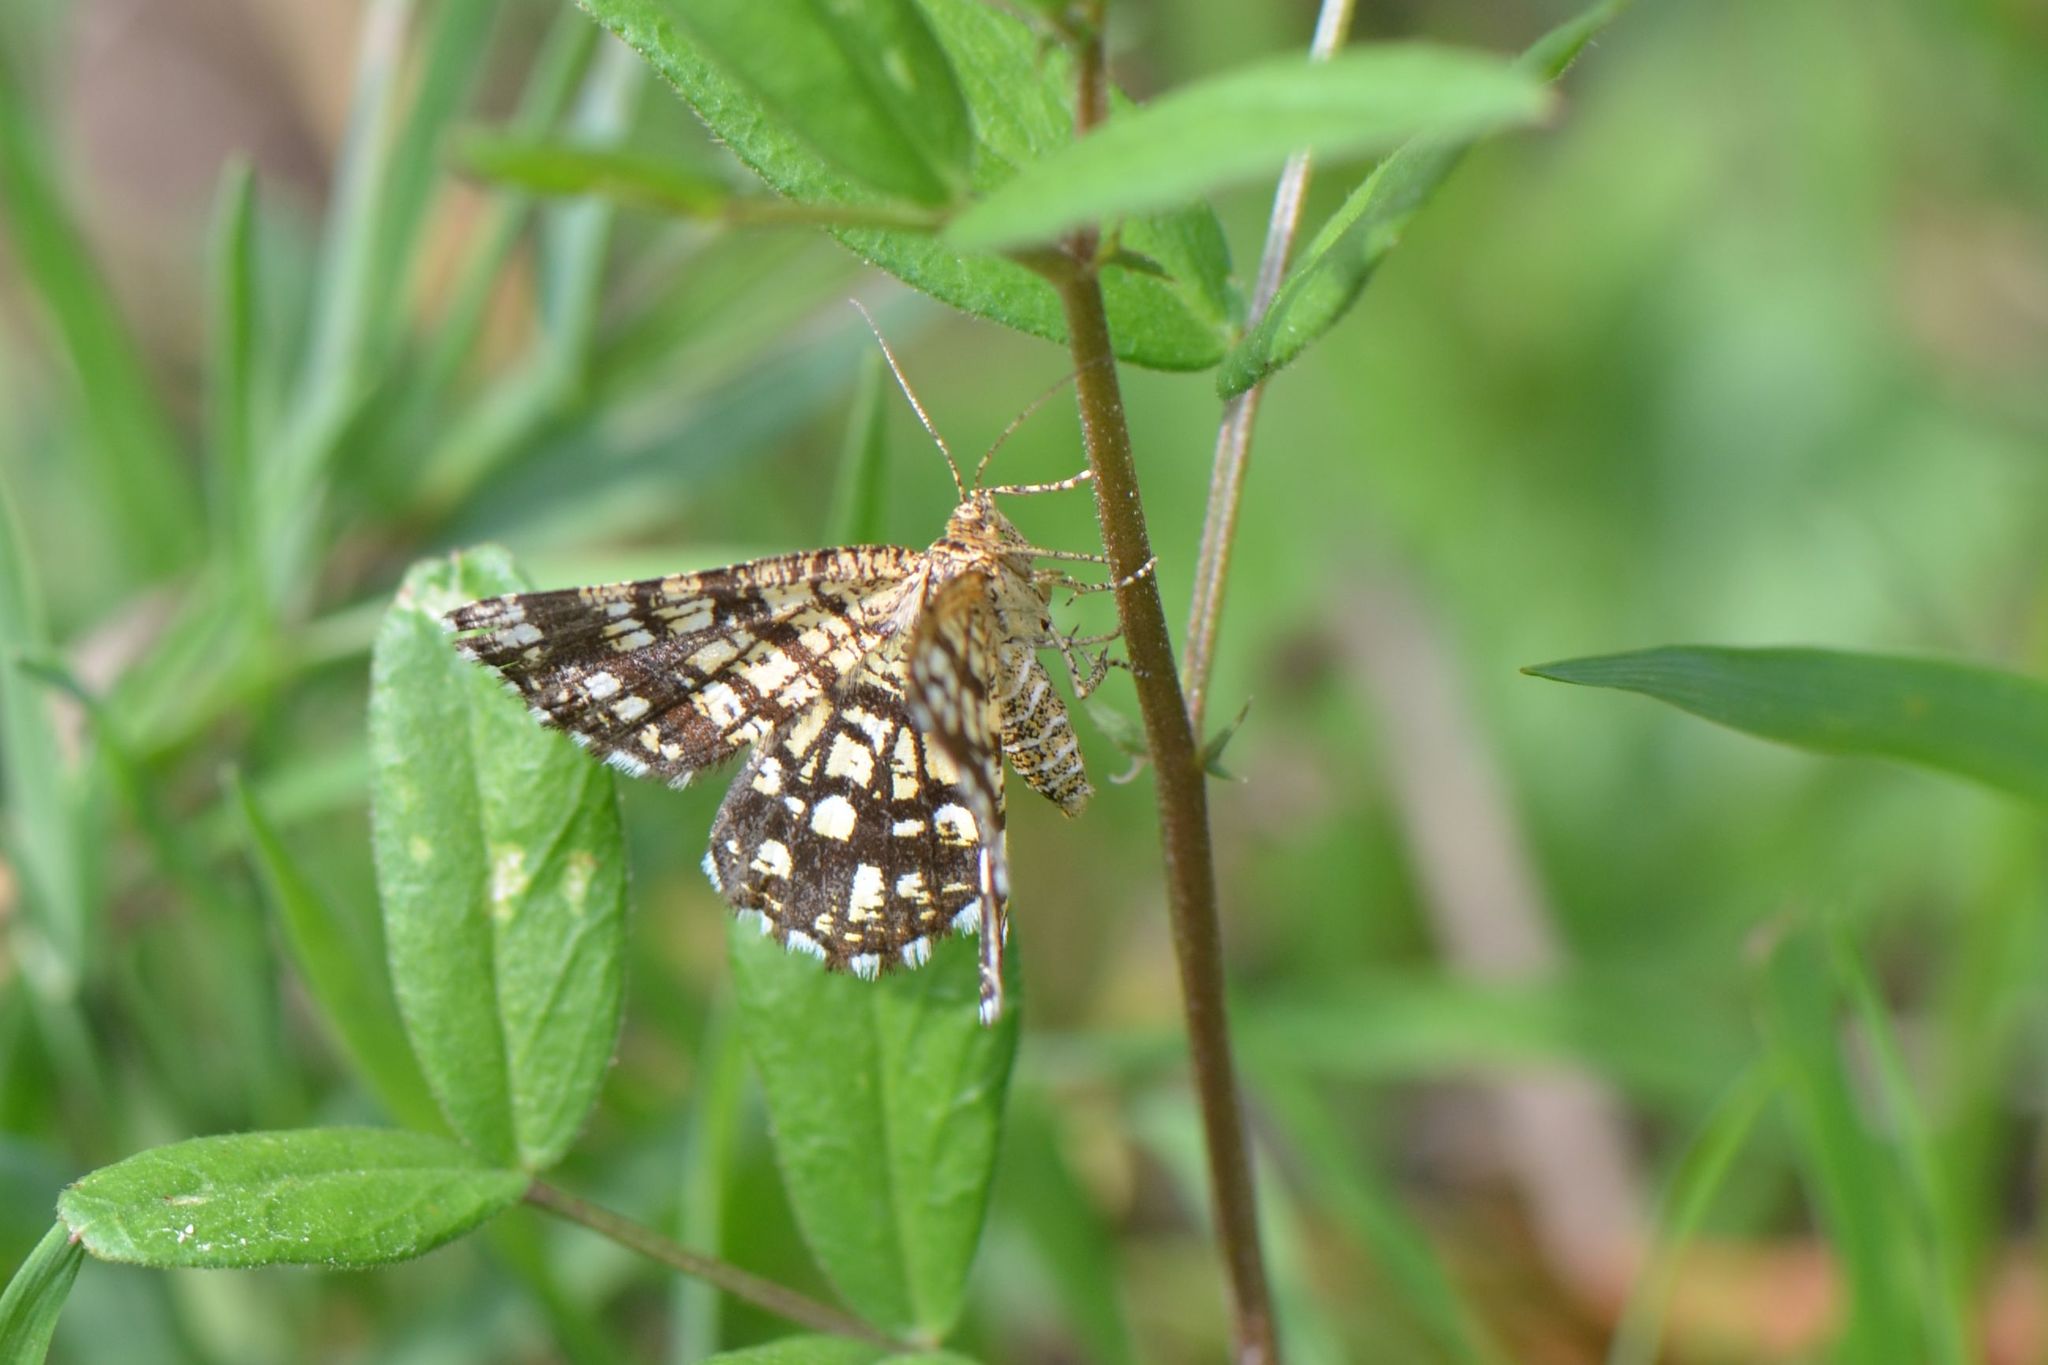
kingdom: Animalia
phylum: Arthropoda
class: Insecta
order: Lepidoptera
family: Geometridae
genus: Chiasmia
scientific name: Chiasmia clathrata
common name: Latticed heath
